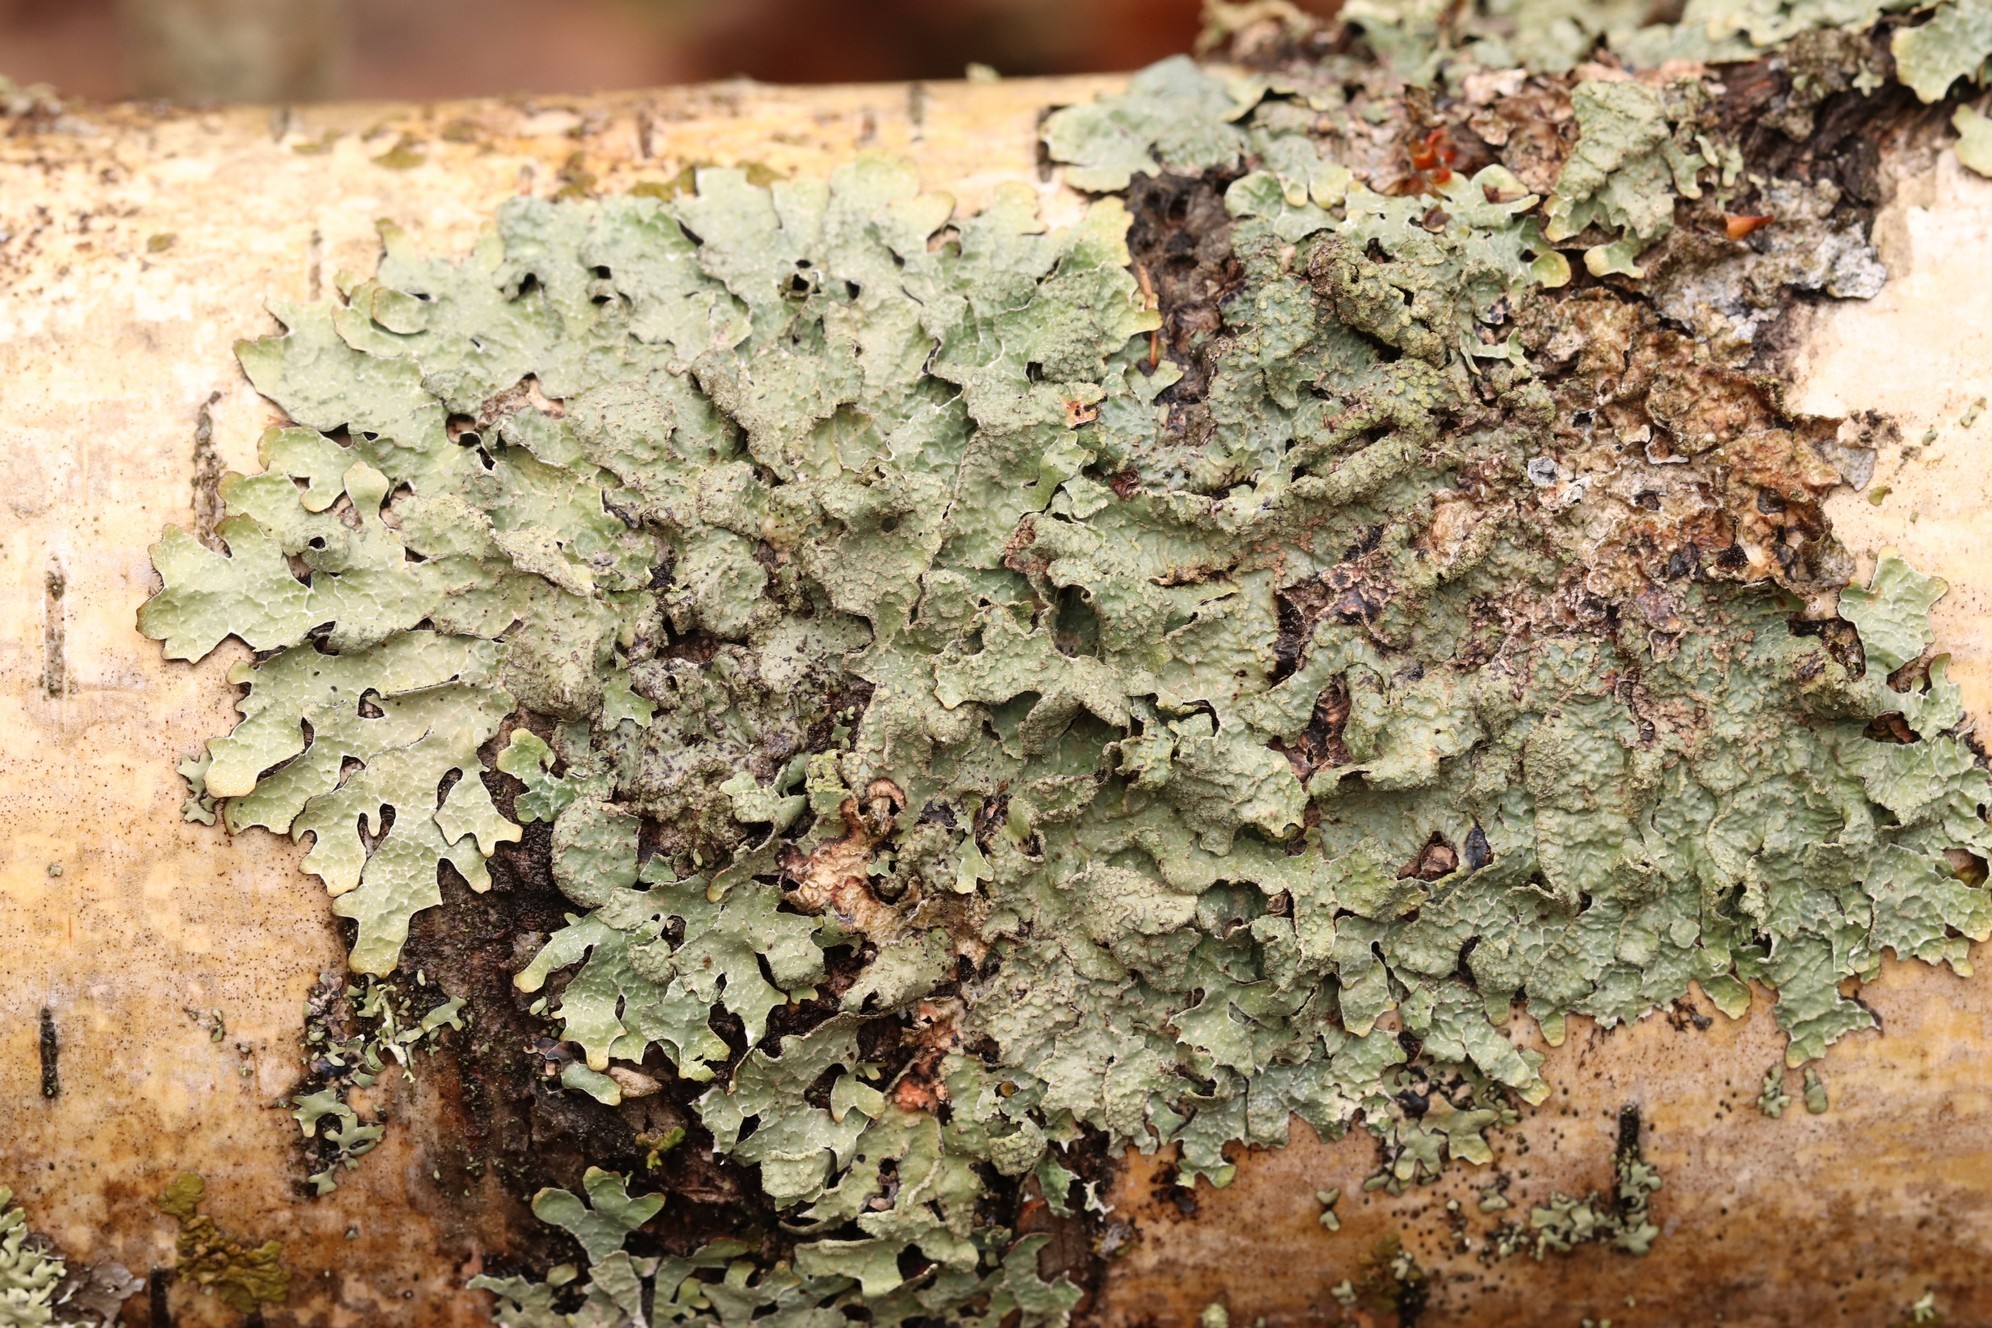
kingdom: Fungi
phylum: Ascomycota
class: Lecanoromycetes
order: Lecanorales
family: Parmeliaceae
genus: Parmelia
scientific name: Parmelia sulcata
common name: Netted shield lichen
